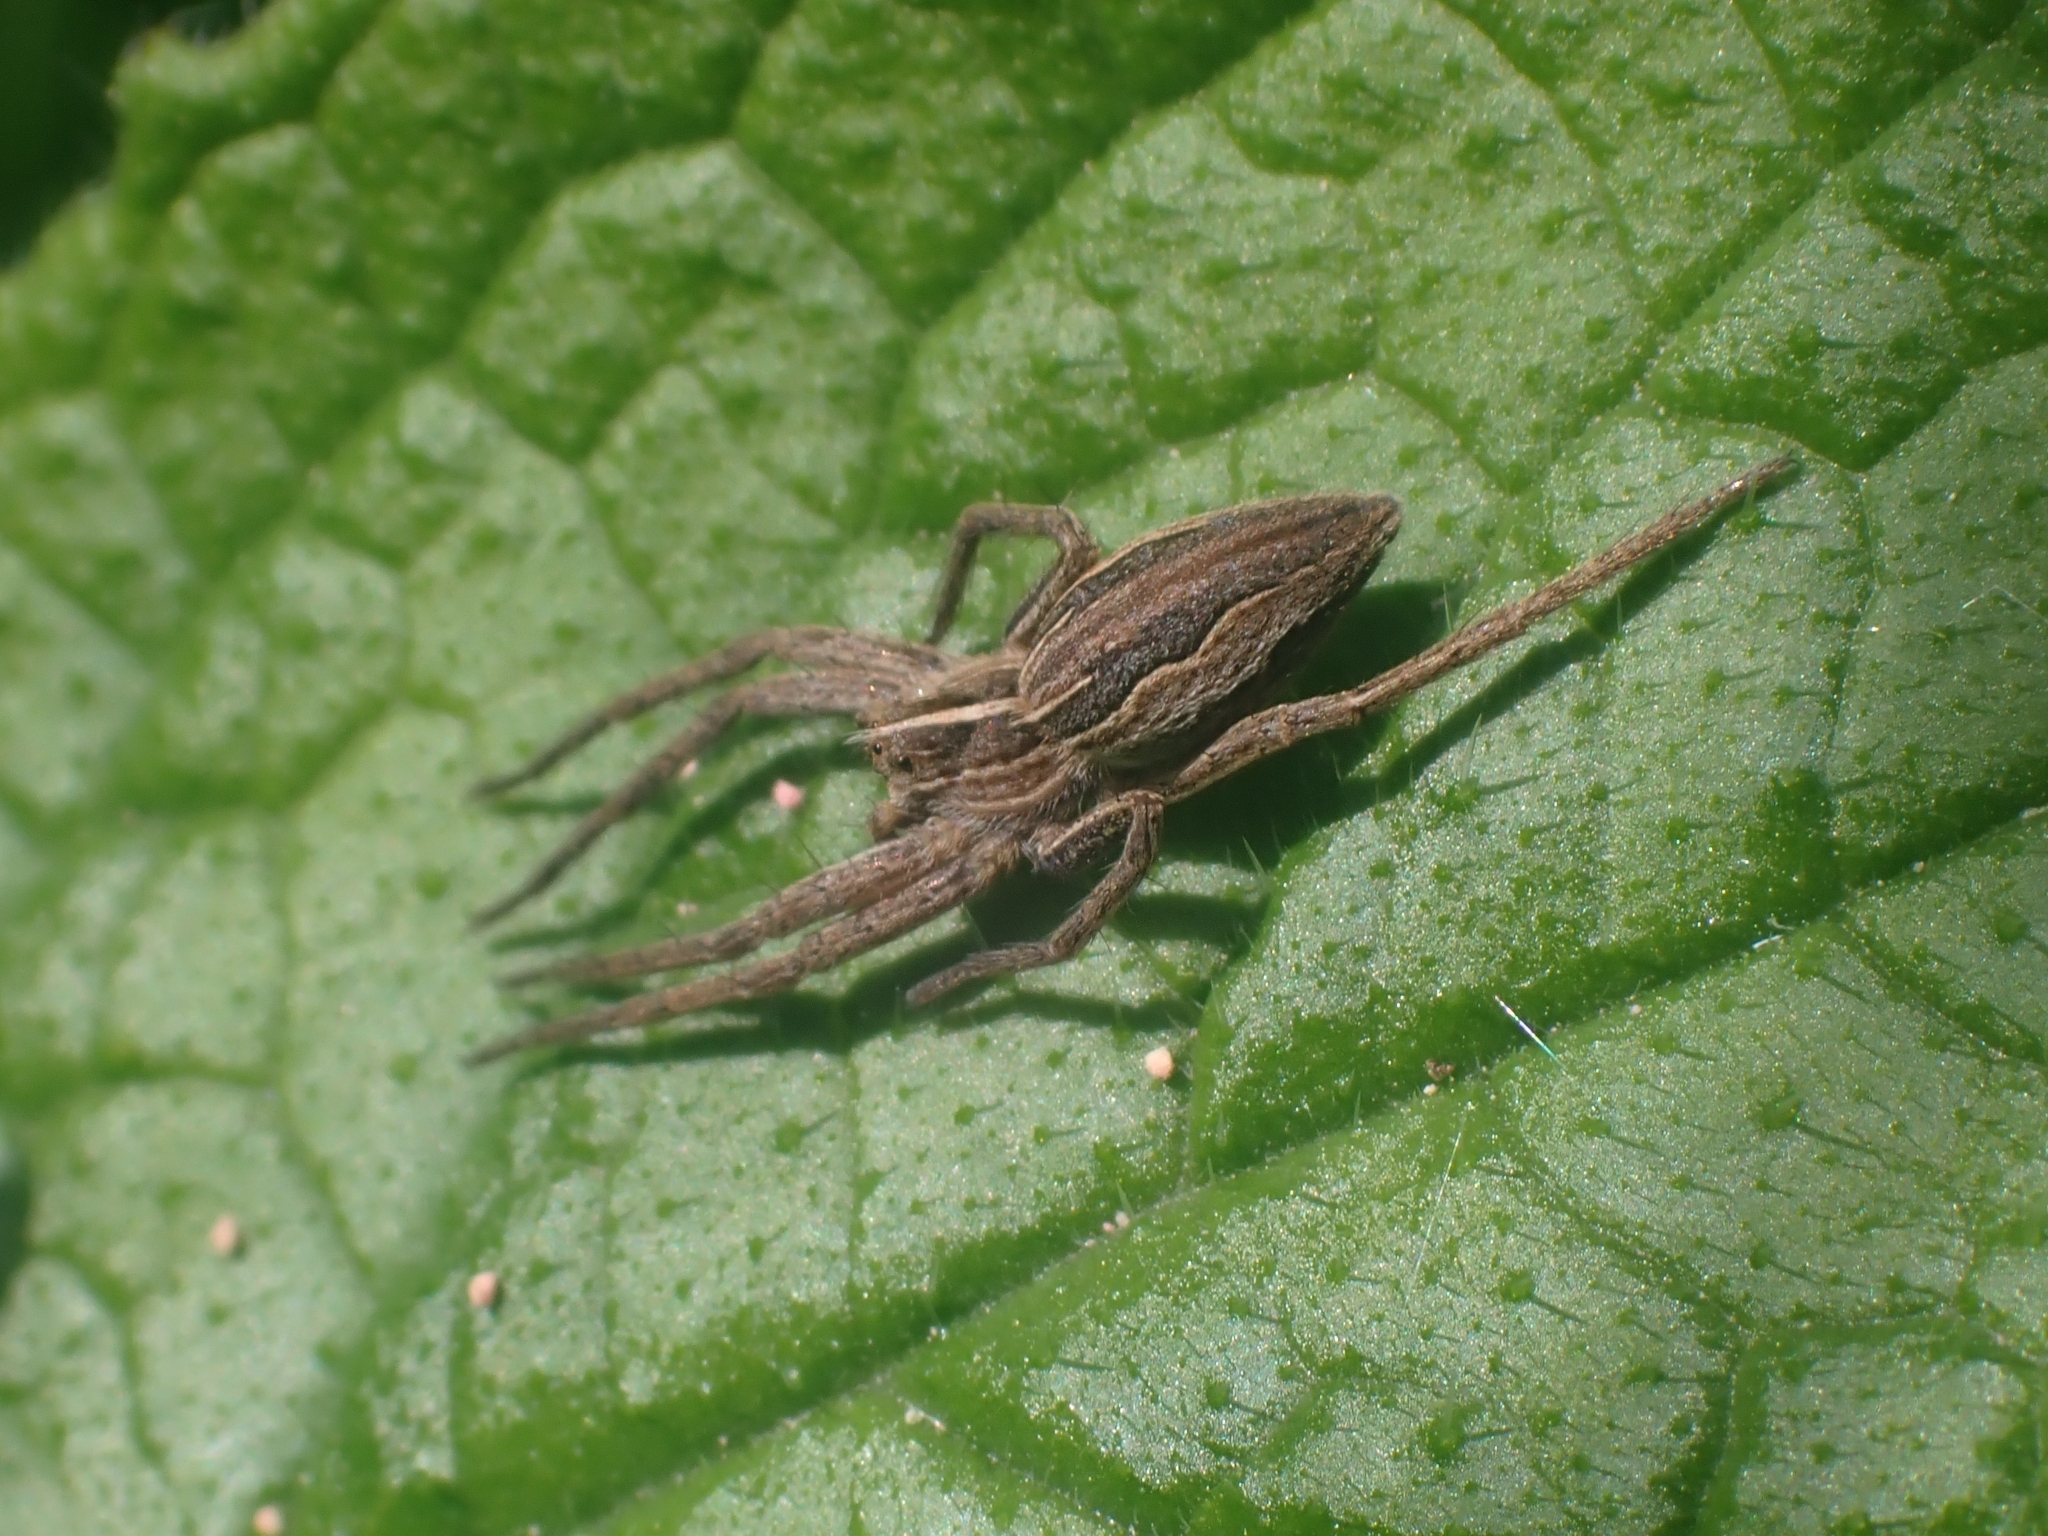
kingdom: Animalia
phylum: Arthropoda
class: Arachnida
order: Araneae
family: Pisauridae
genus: Pisaura
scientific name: Pisaura mirabilis
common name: Tent spider
